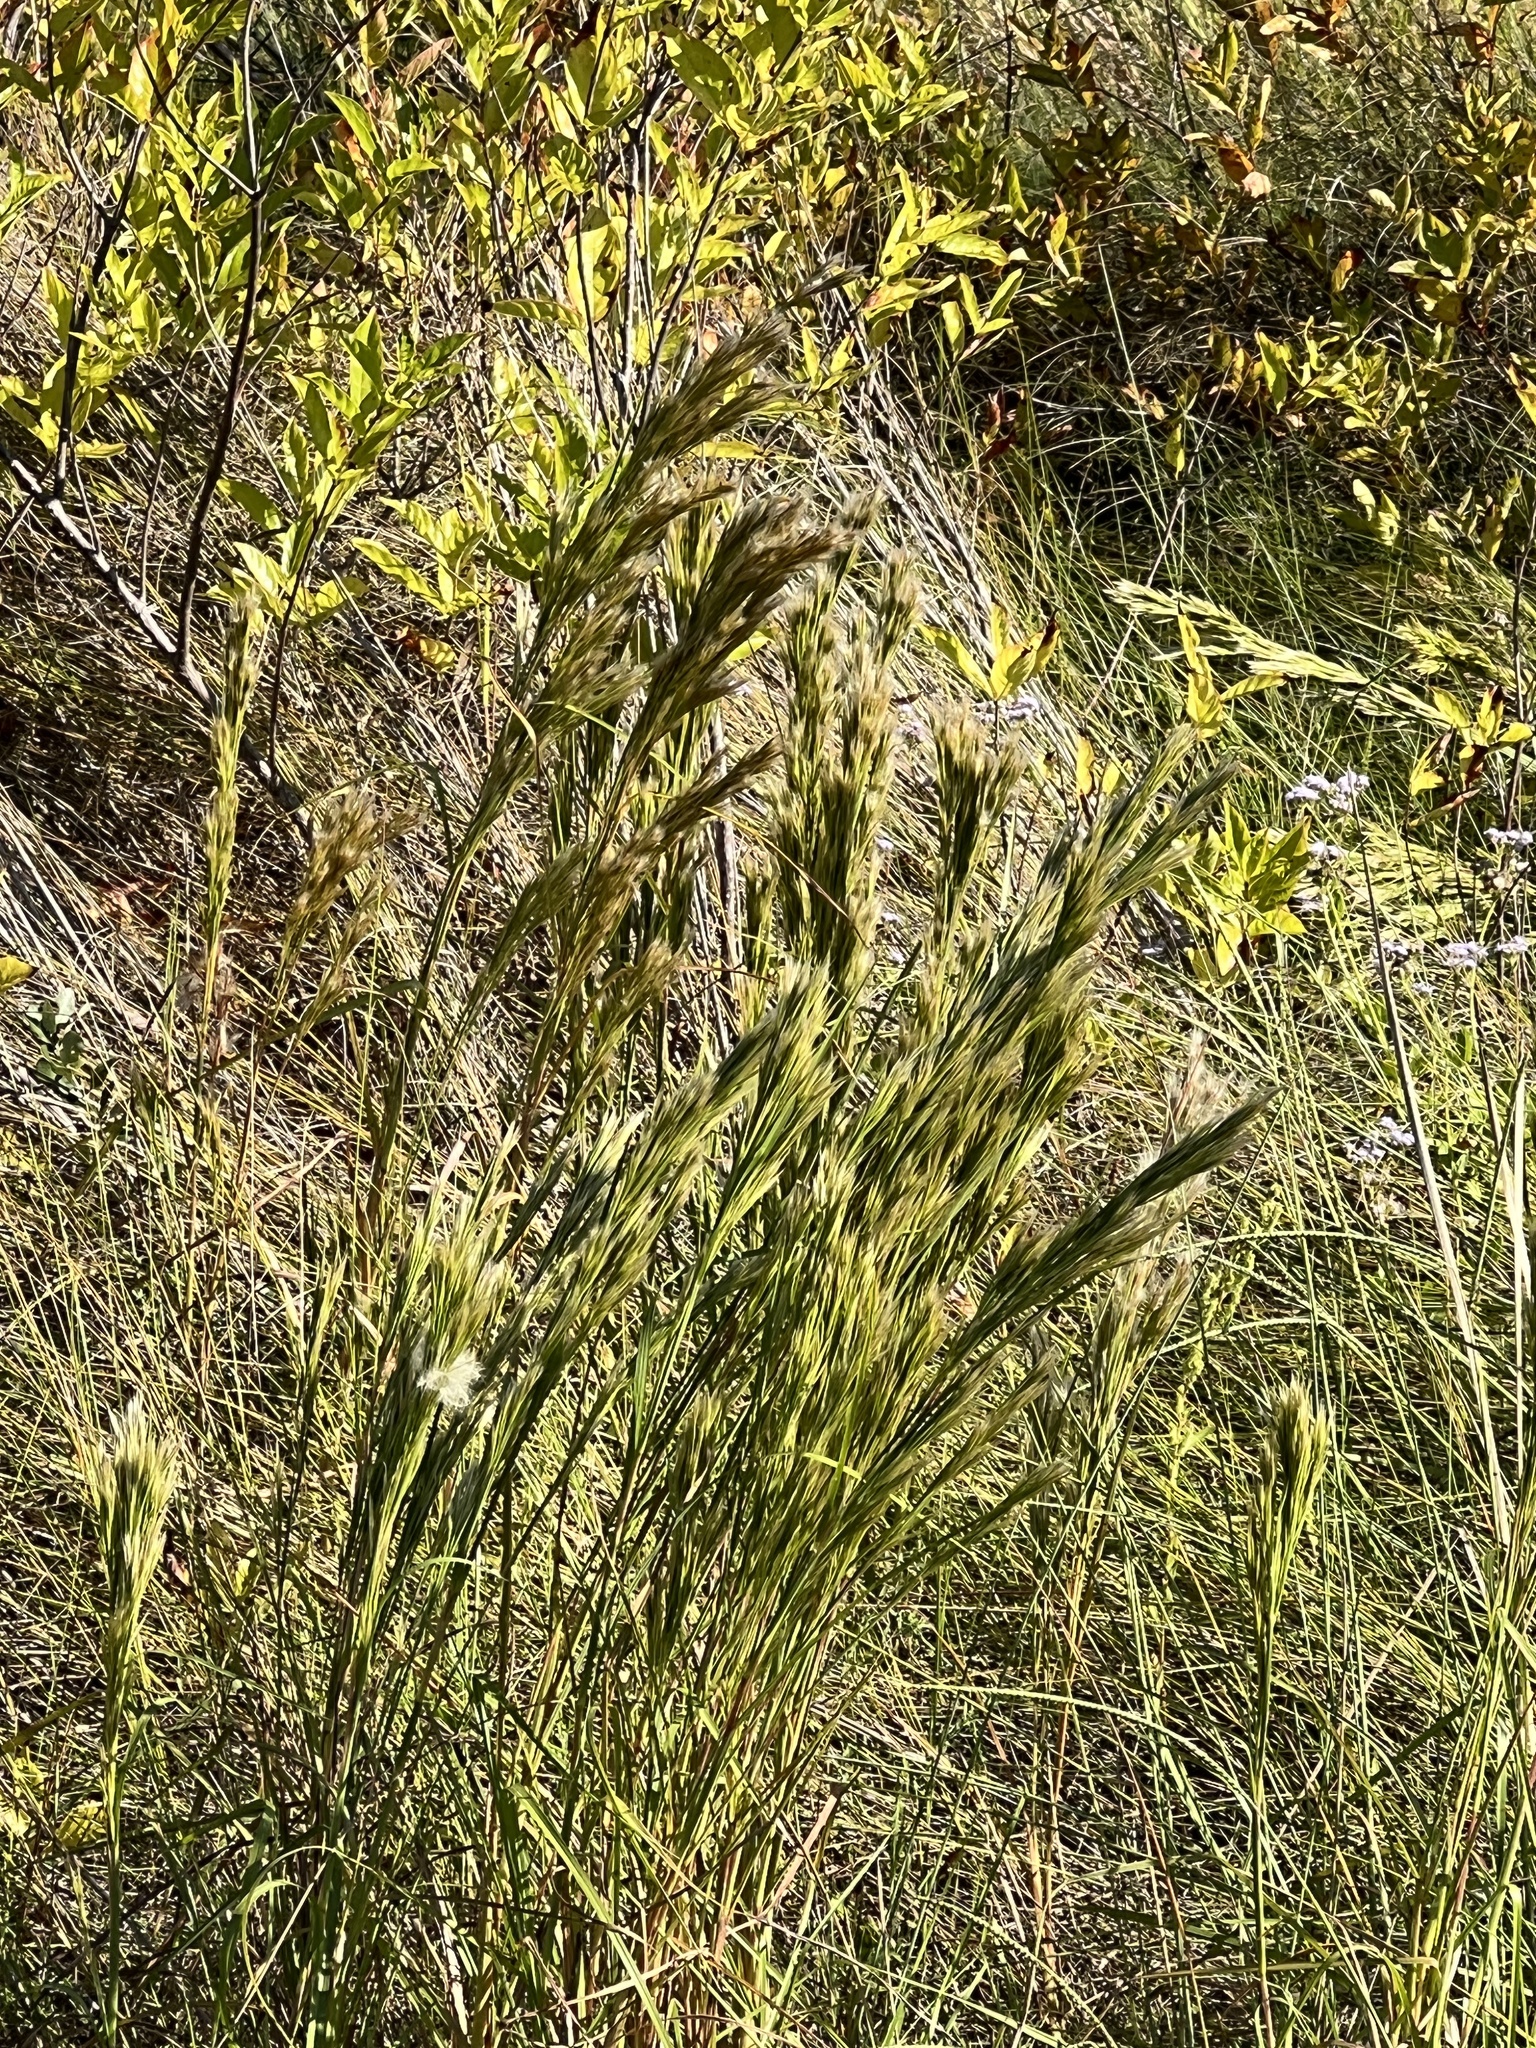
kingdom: Plantae
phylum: Tracheophyta
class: Liliopsida
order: Poales
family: Poaceae
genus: Andropogon
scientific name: Andropogon tenuispatheus
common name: Bushy bluestem
